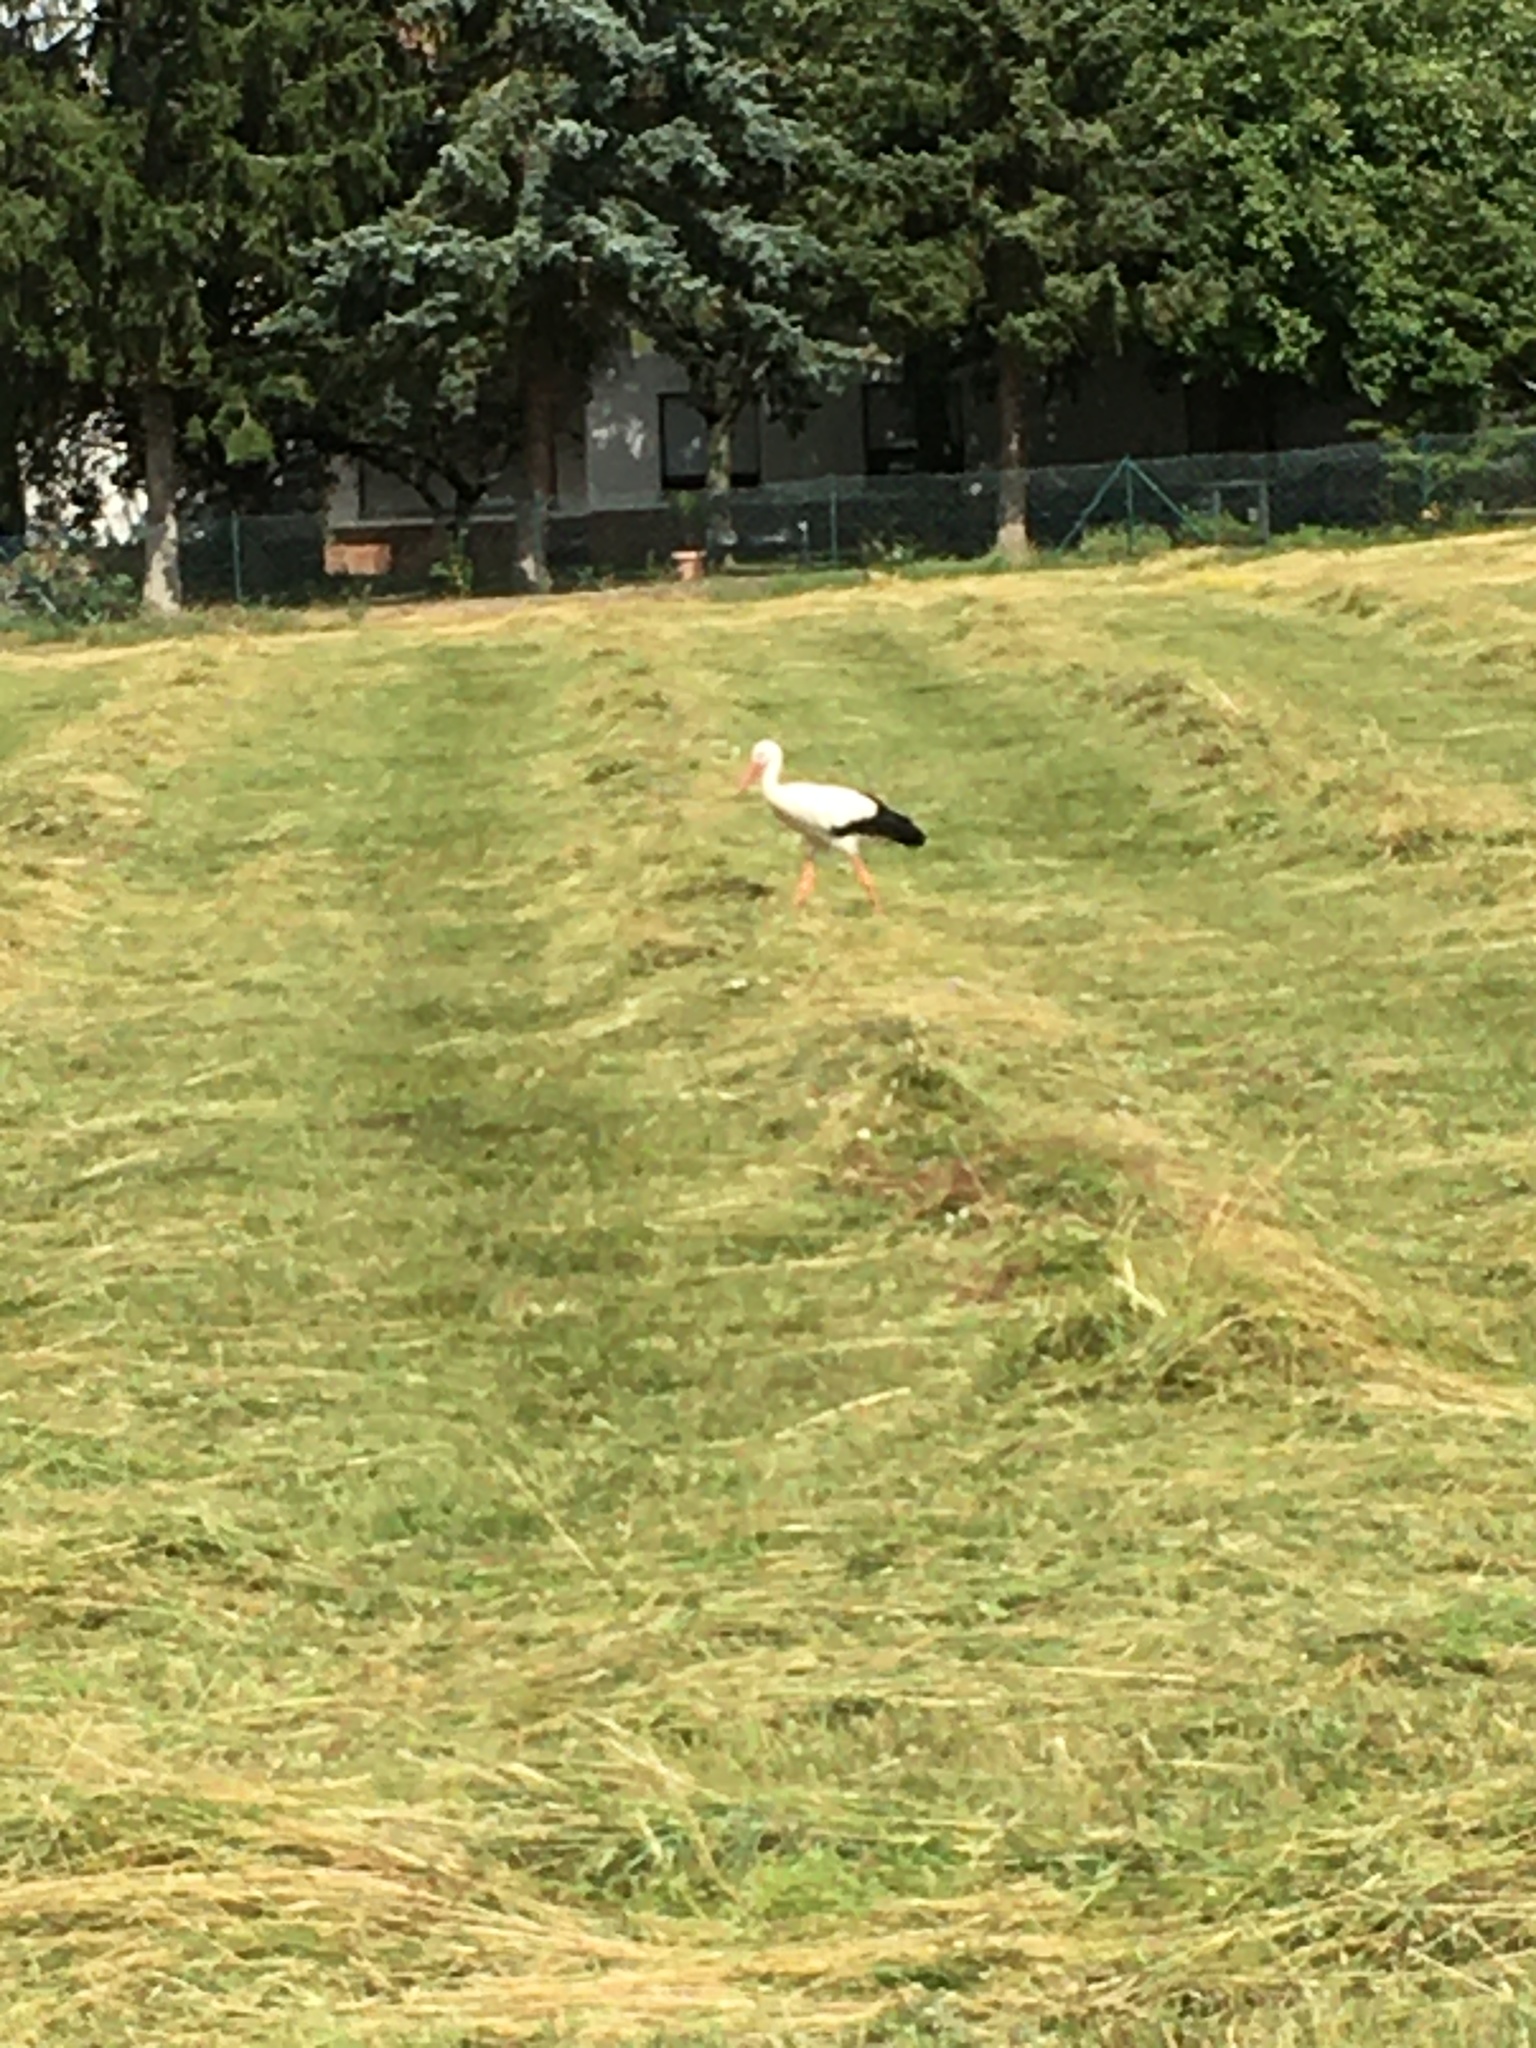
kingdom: Animalia
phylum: Chordata
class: Aves
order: Ciconiiformes
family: Ciconiidae
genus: Ciconia
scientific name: Ciconia ciconia
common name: White stork
